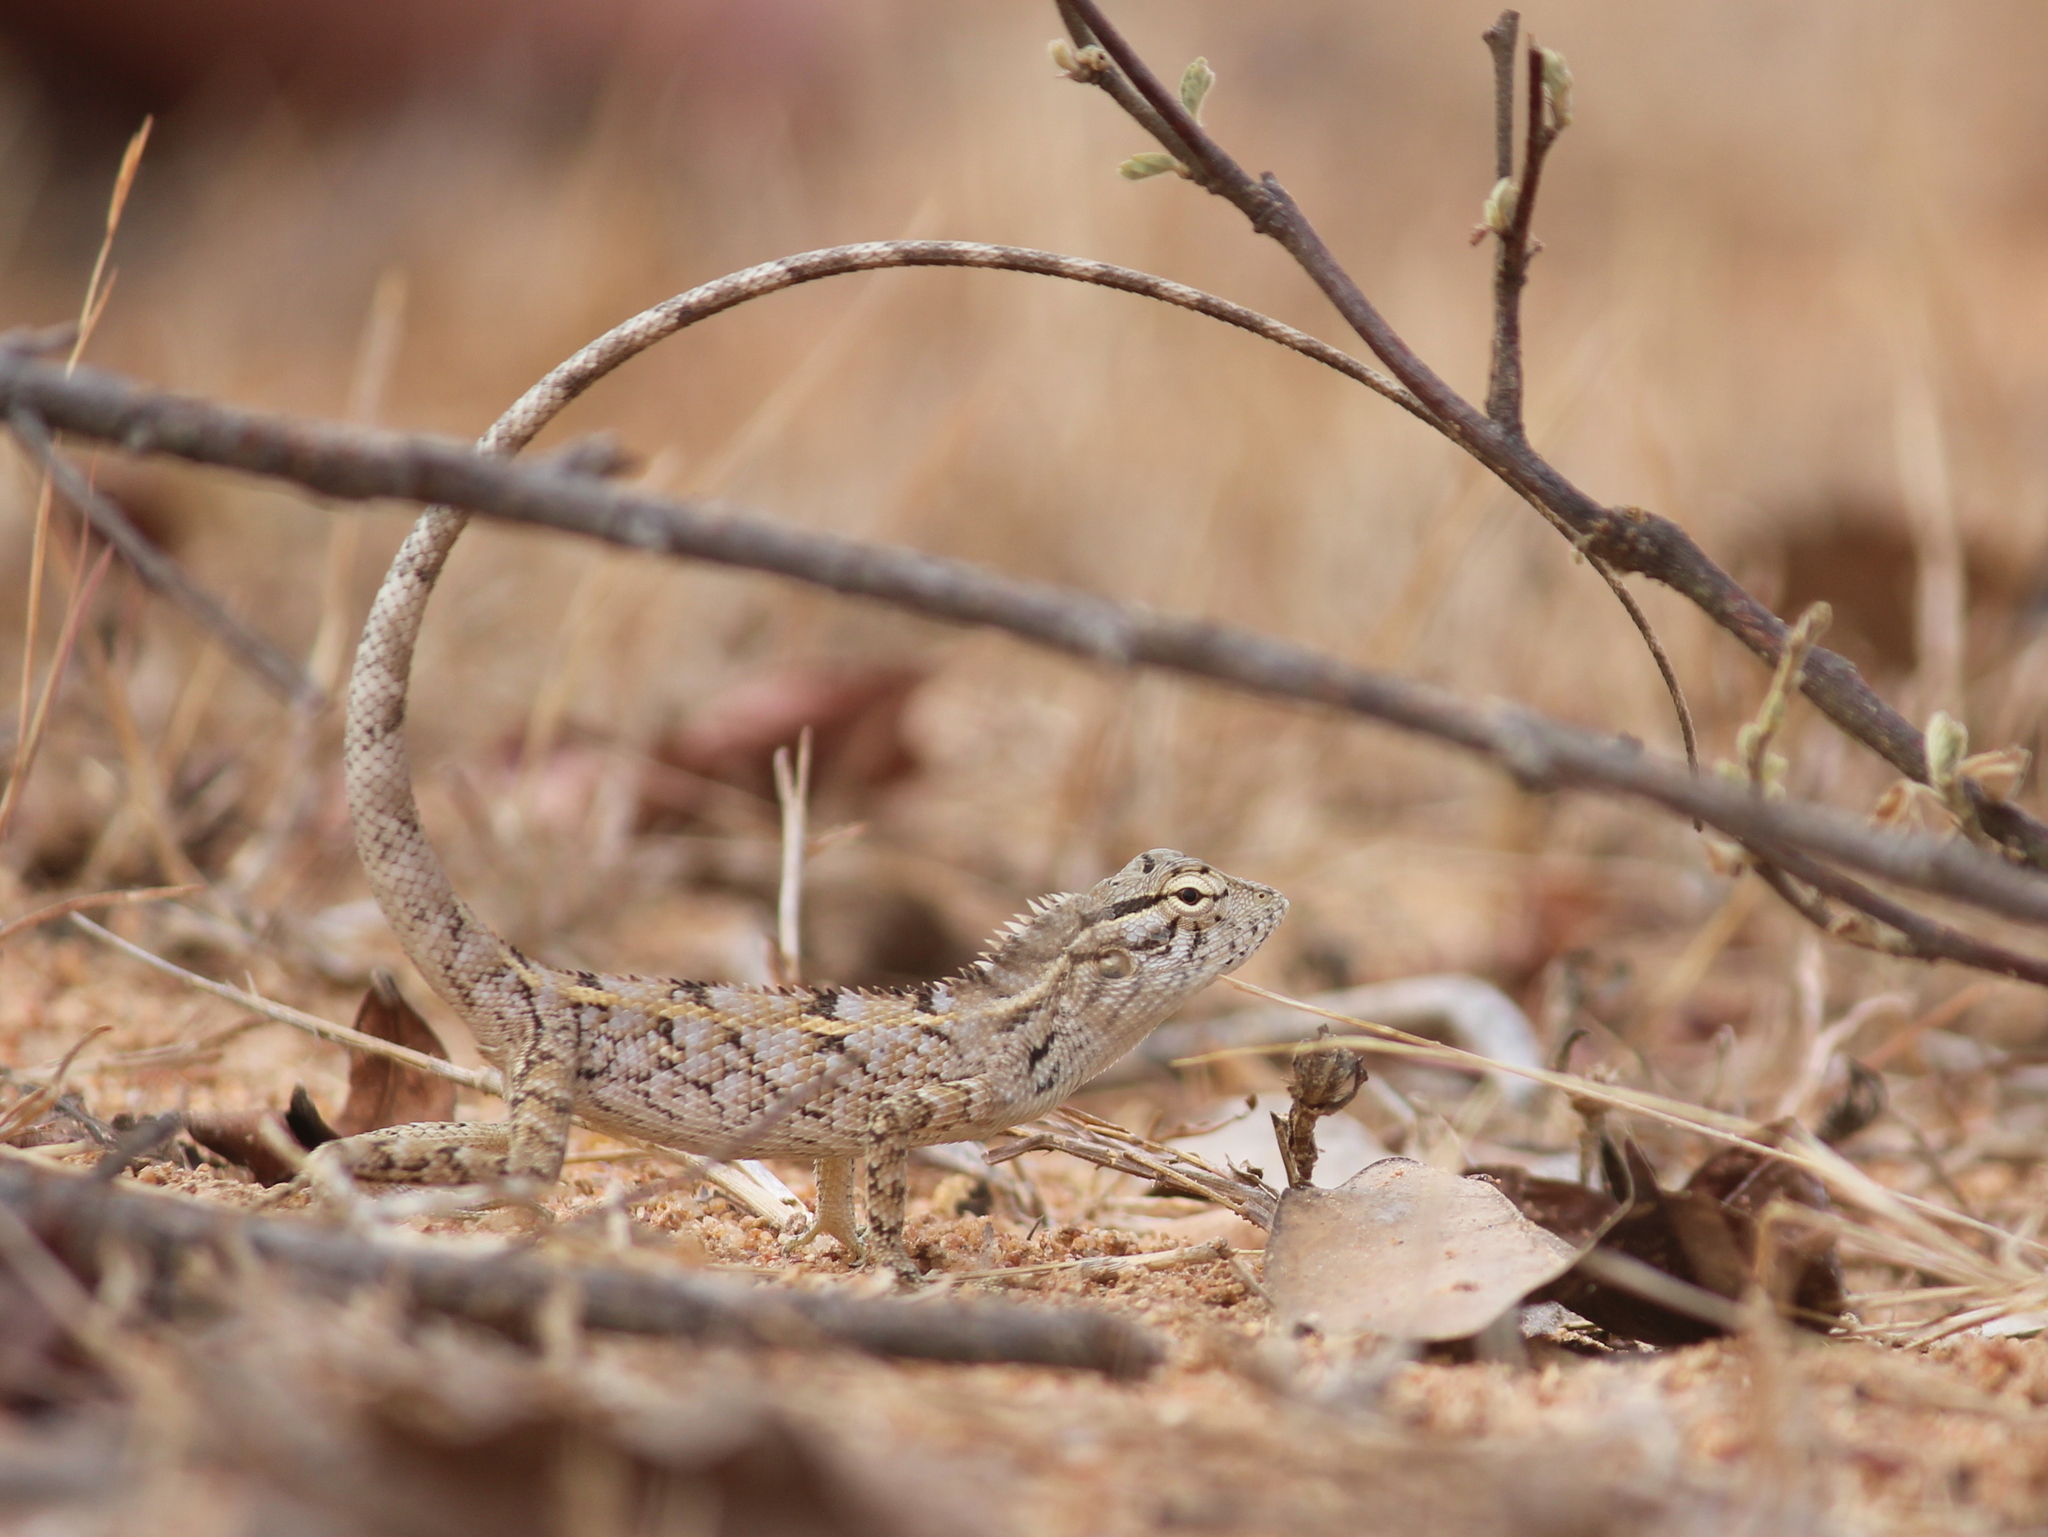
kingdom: Animalia
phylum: Chordata
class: Squamata
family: Agamidae
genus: Calotes
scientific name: Calotes versicolor
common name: Oriental garden lizard
